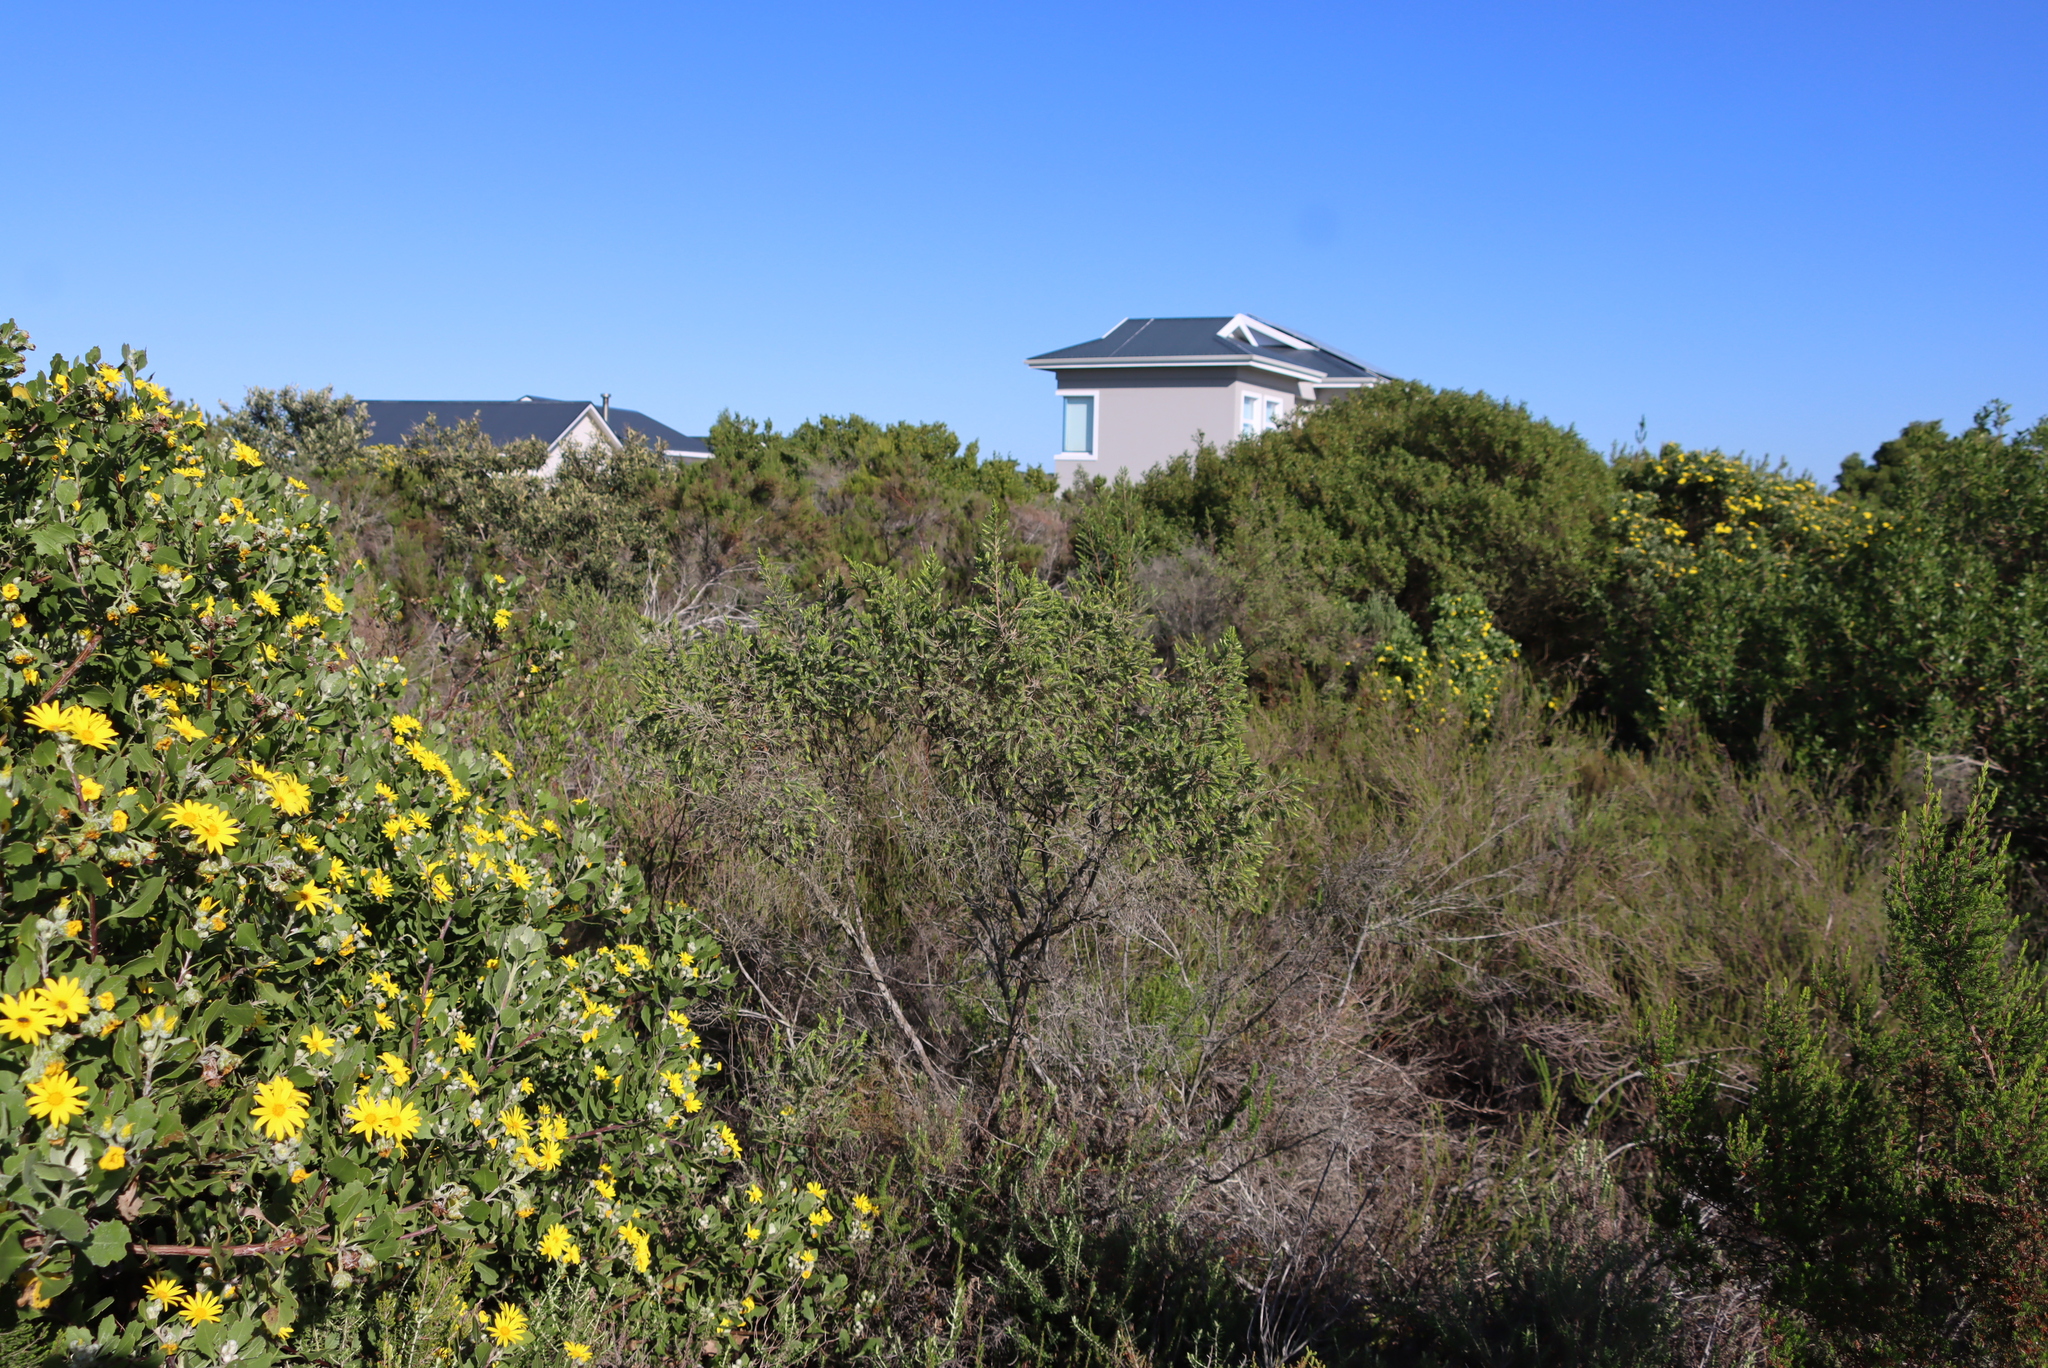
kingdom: Plantae
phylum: Tracheophyta
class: Magnoliopsida
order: Malvales
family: Thymelaeaceae
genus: Passerina
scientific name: Passerina falcifolia
